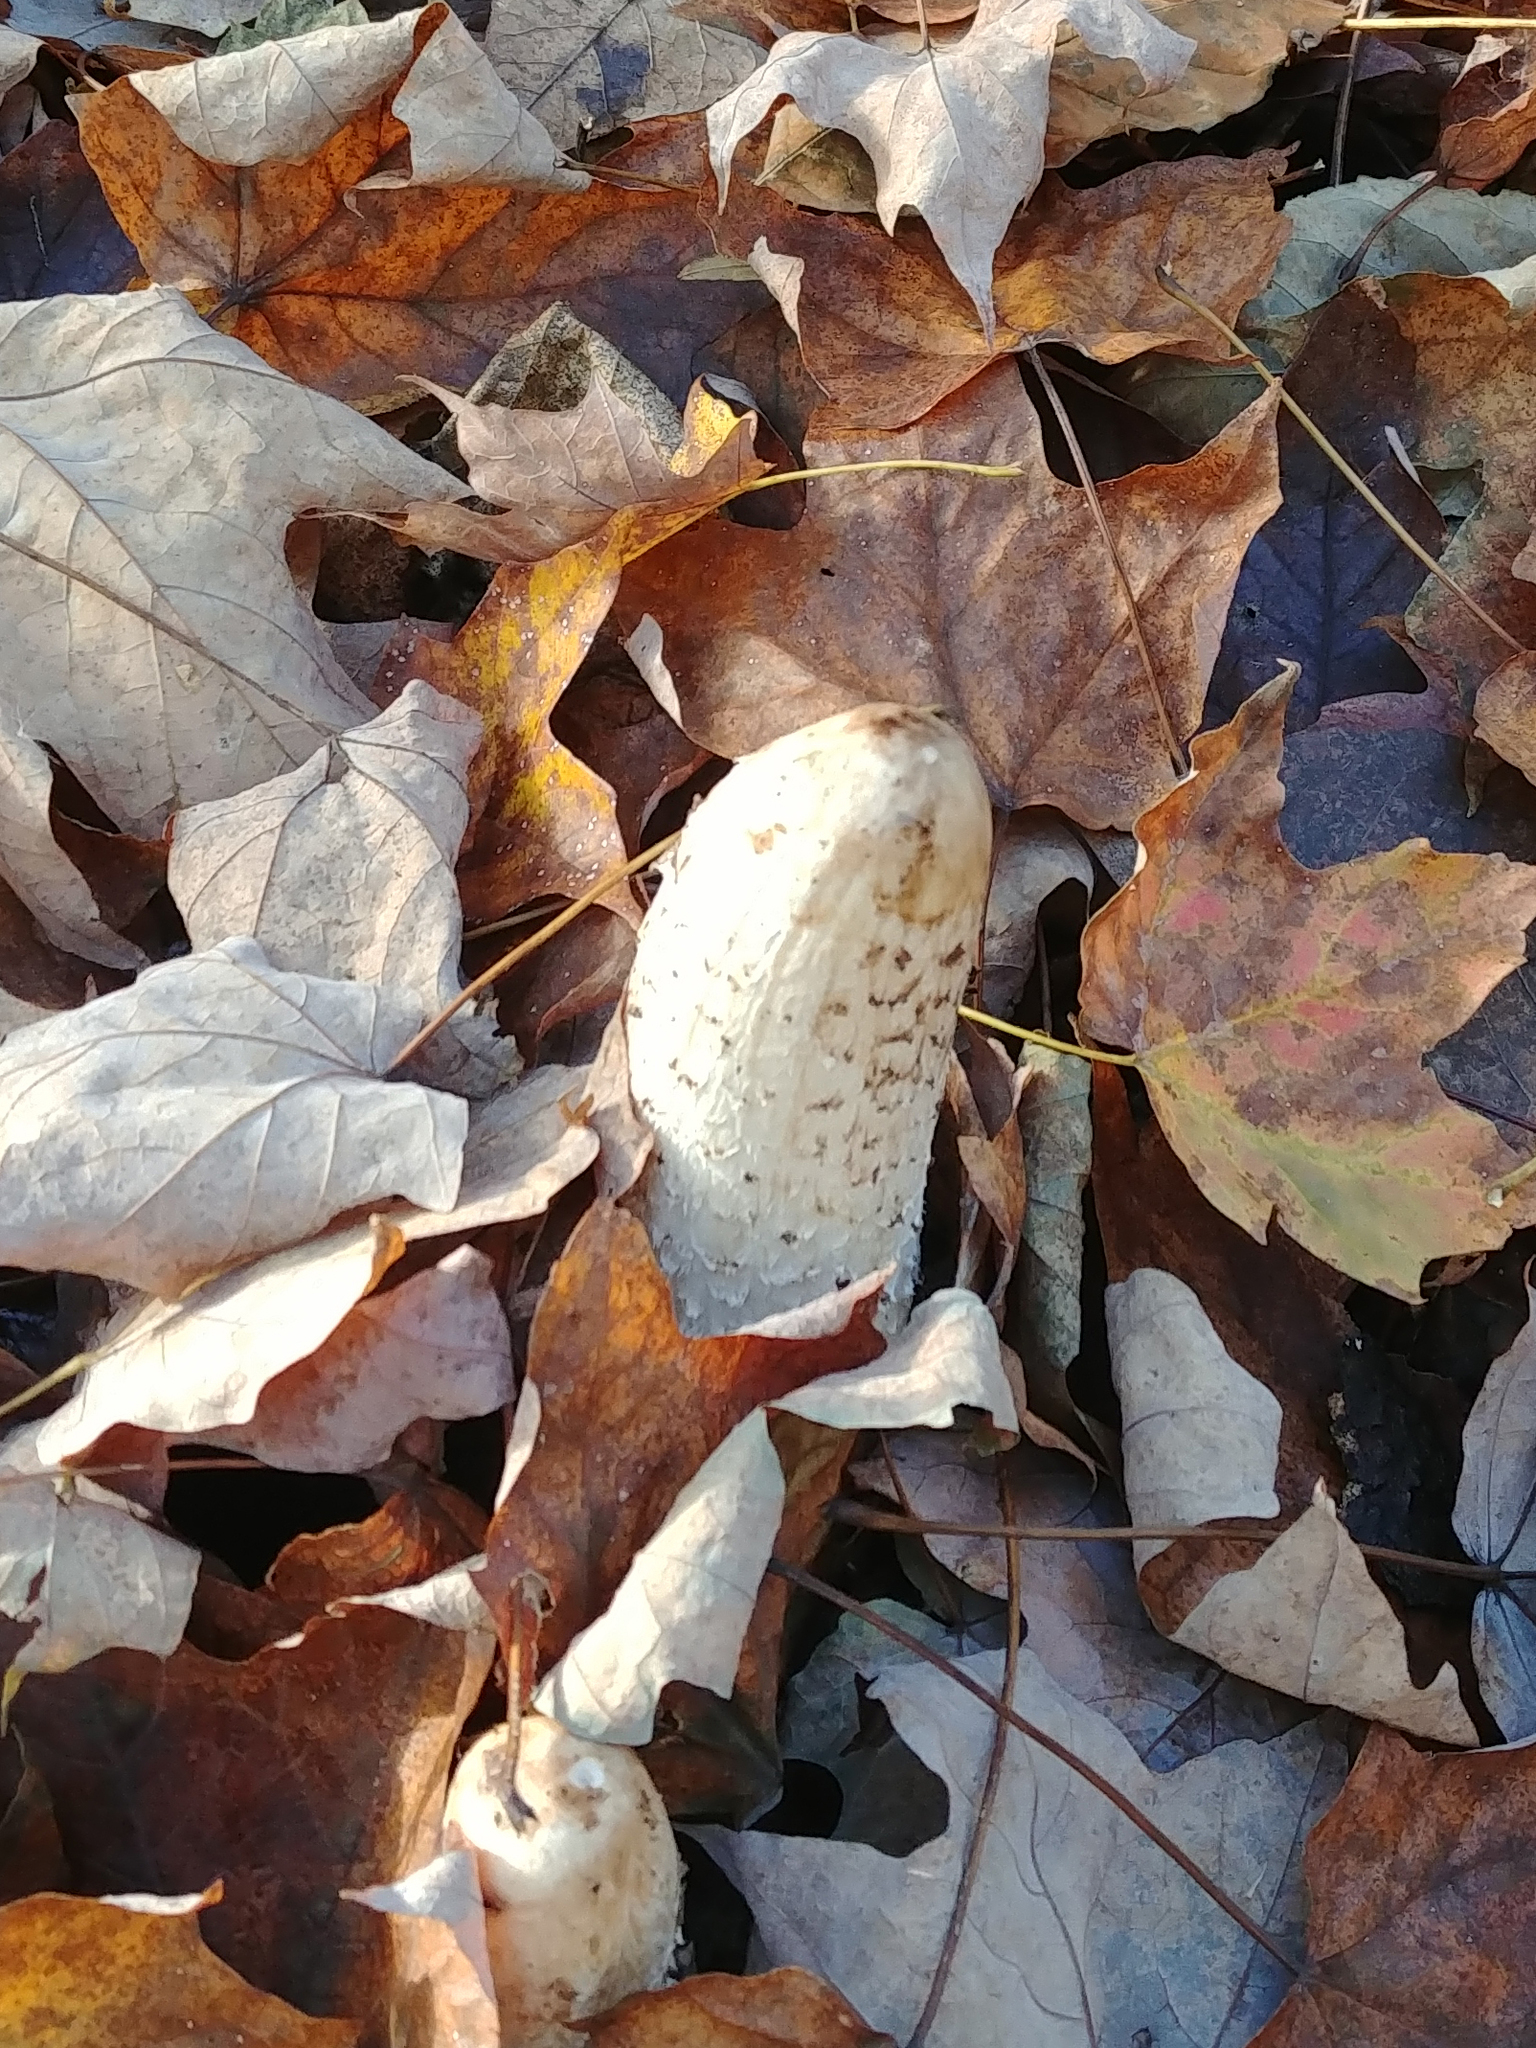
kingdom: Fungi
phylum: Basidiomycota
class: Agaricomycetes
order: Agaricales
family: Agaricaceae
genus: Coprinus
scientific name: Coprinus comatus
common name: Lawyer's wig
